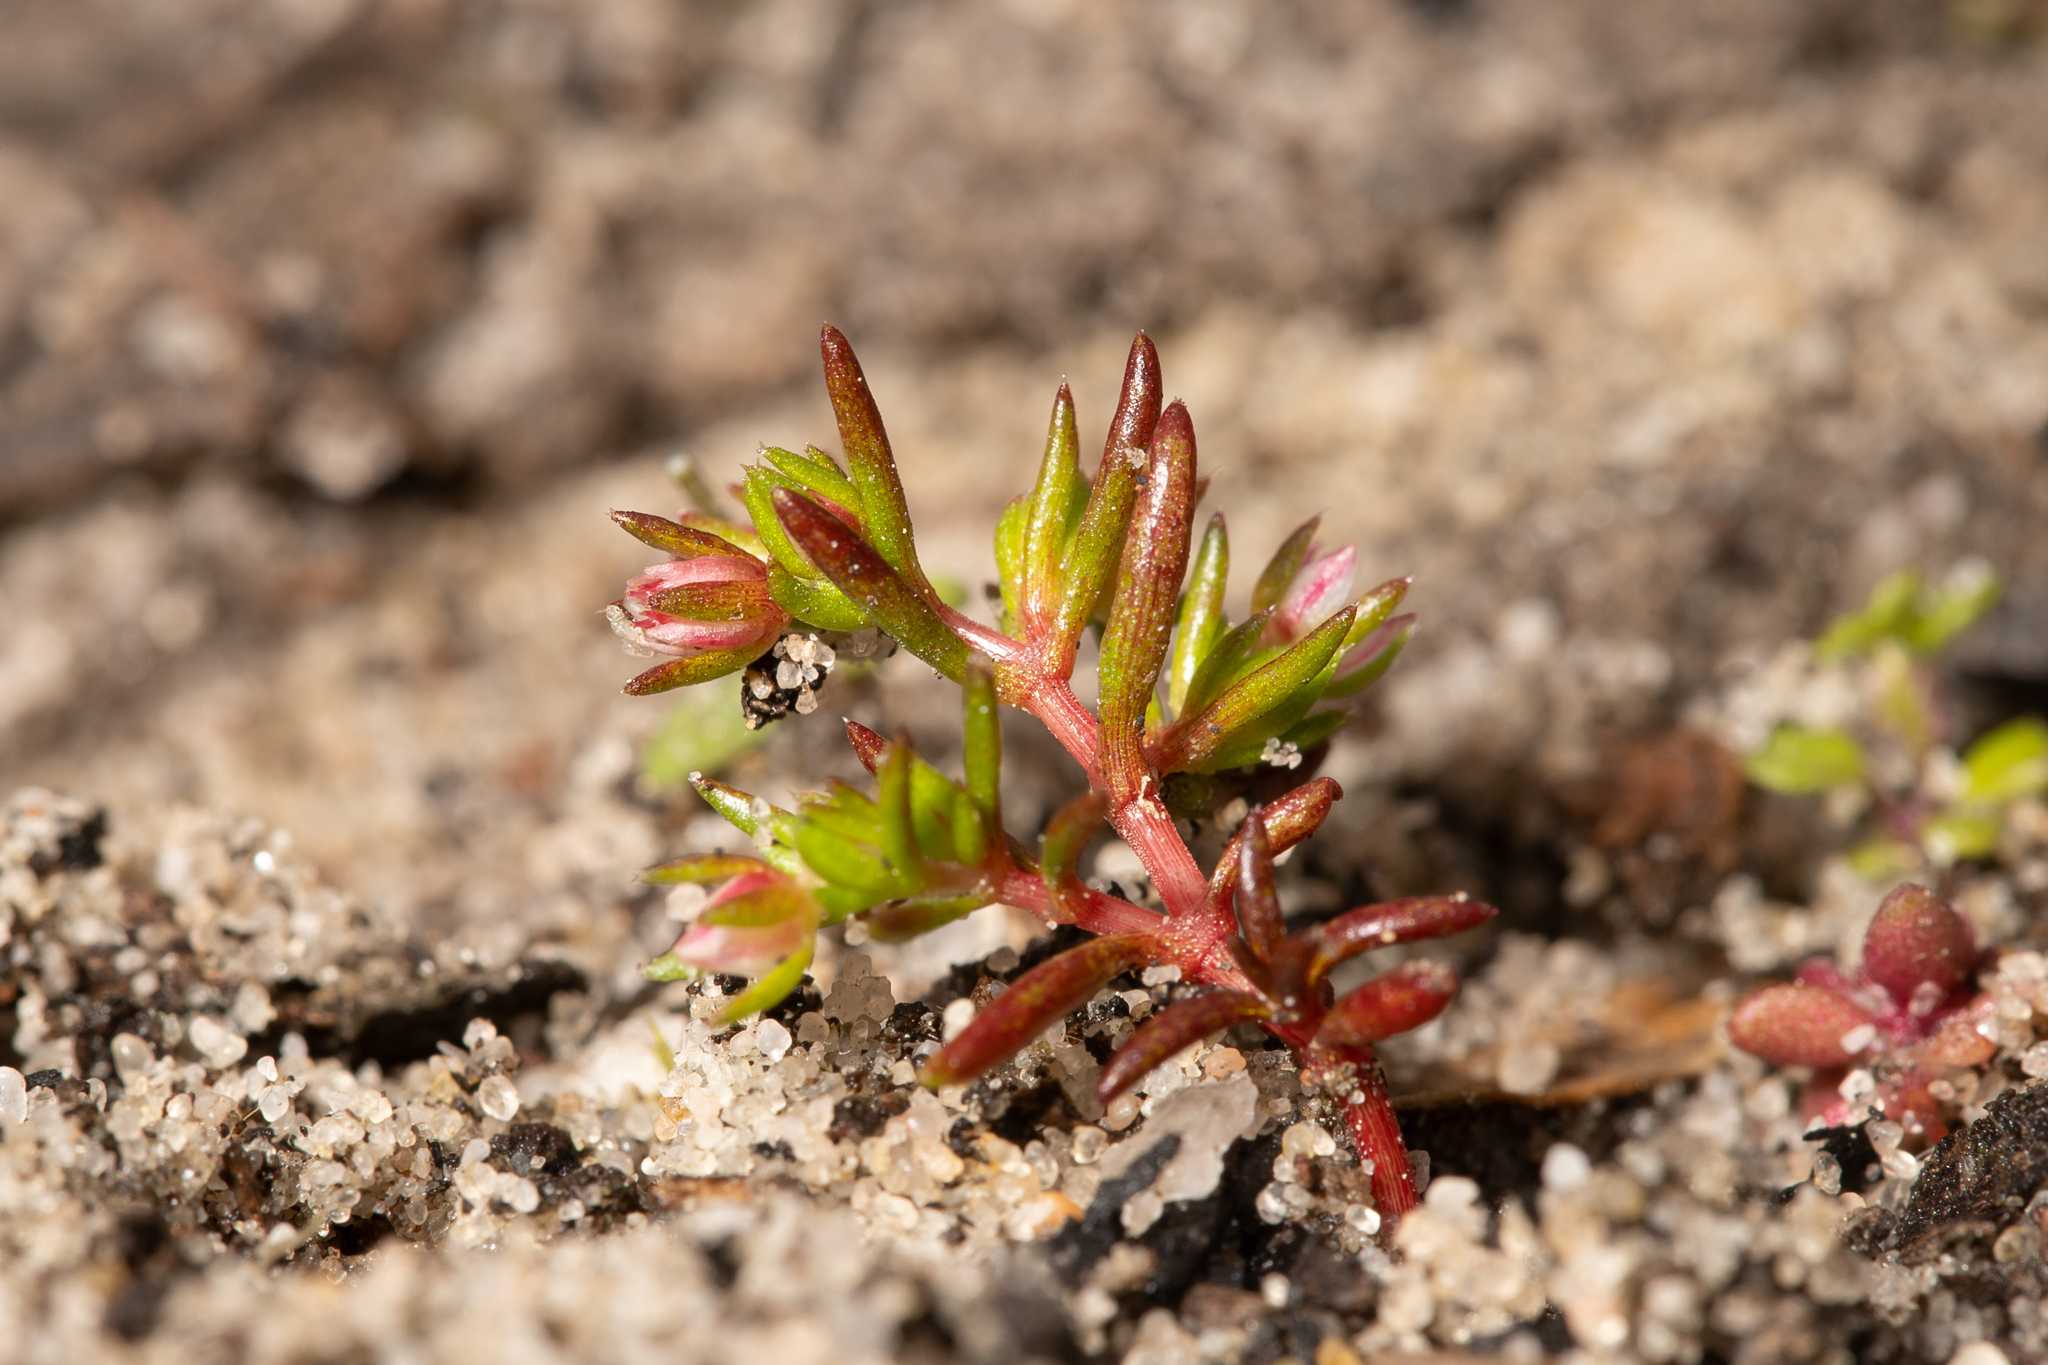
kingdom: Plantae
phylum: Tracheophyta
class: Magnoliopsida
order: Saxifragales
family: Crassulaceae
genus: Crassula
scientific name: Crassula decumbens
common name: Scilly pigmyweed
